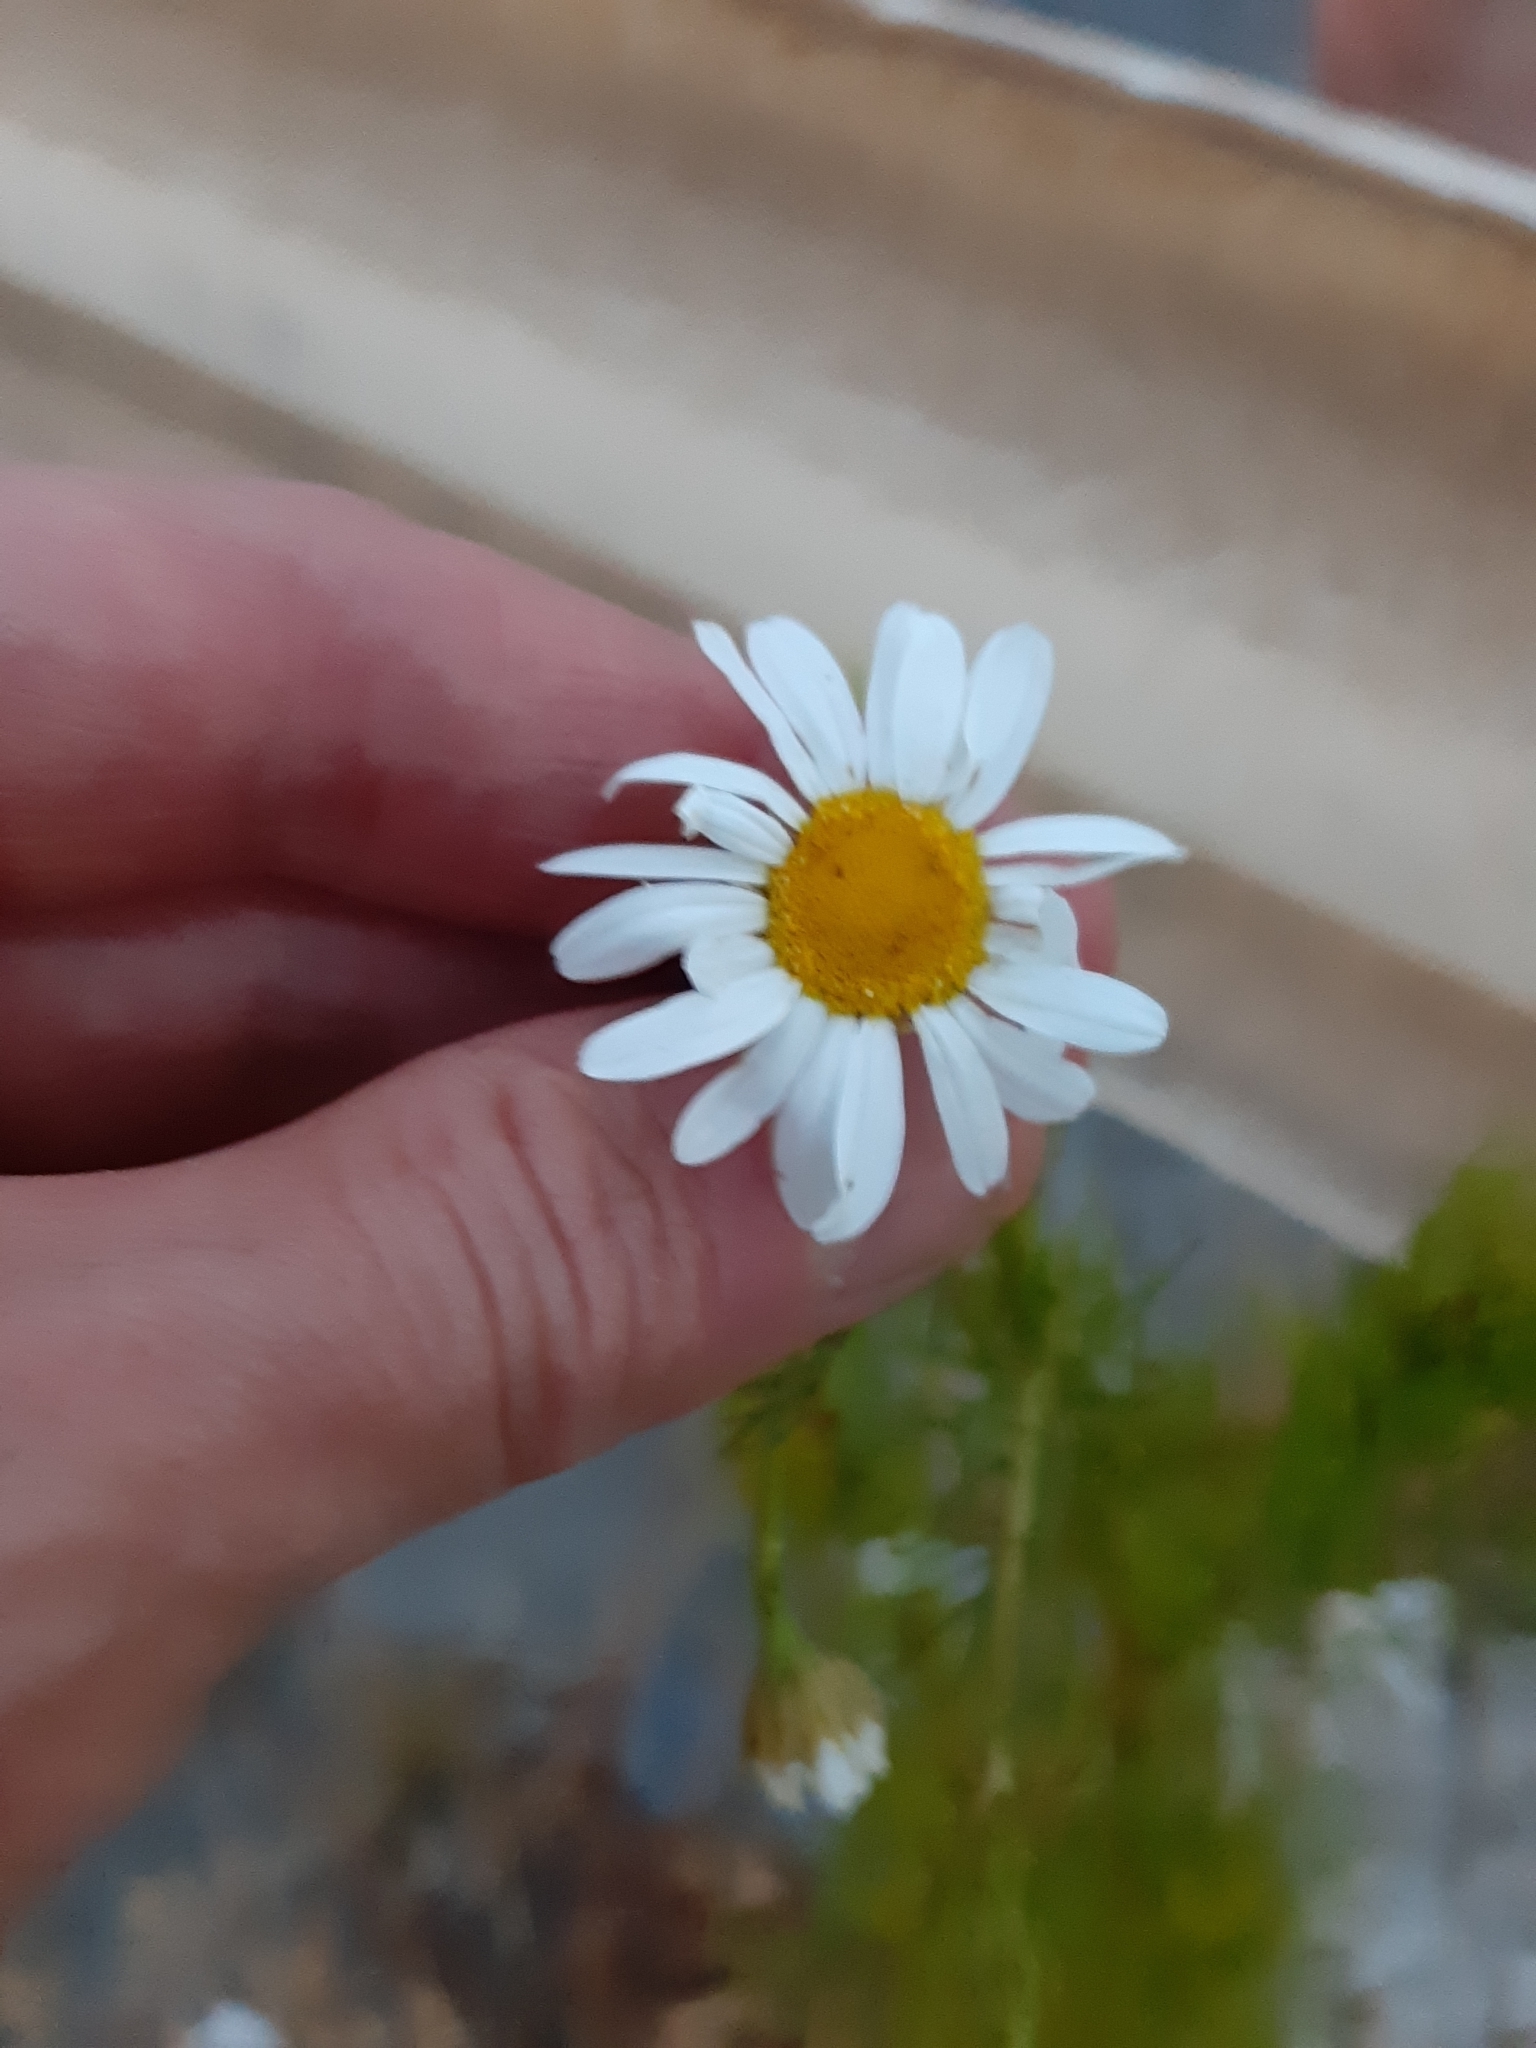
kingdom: Plantae
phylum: Tracheophyta
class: Magnoliopsida
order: Asterales
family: Asteraceae
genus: Tripleurospermum
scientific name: Tripleurospermum inodorum
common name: Scentless mayweed
